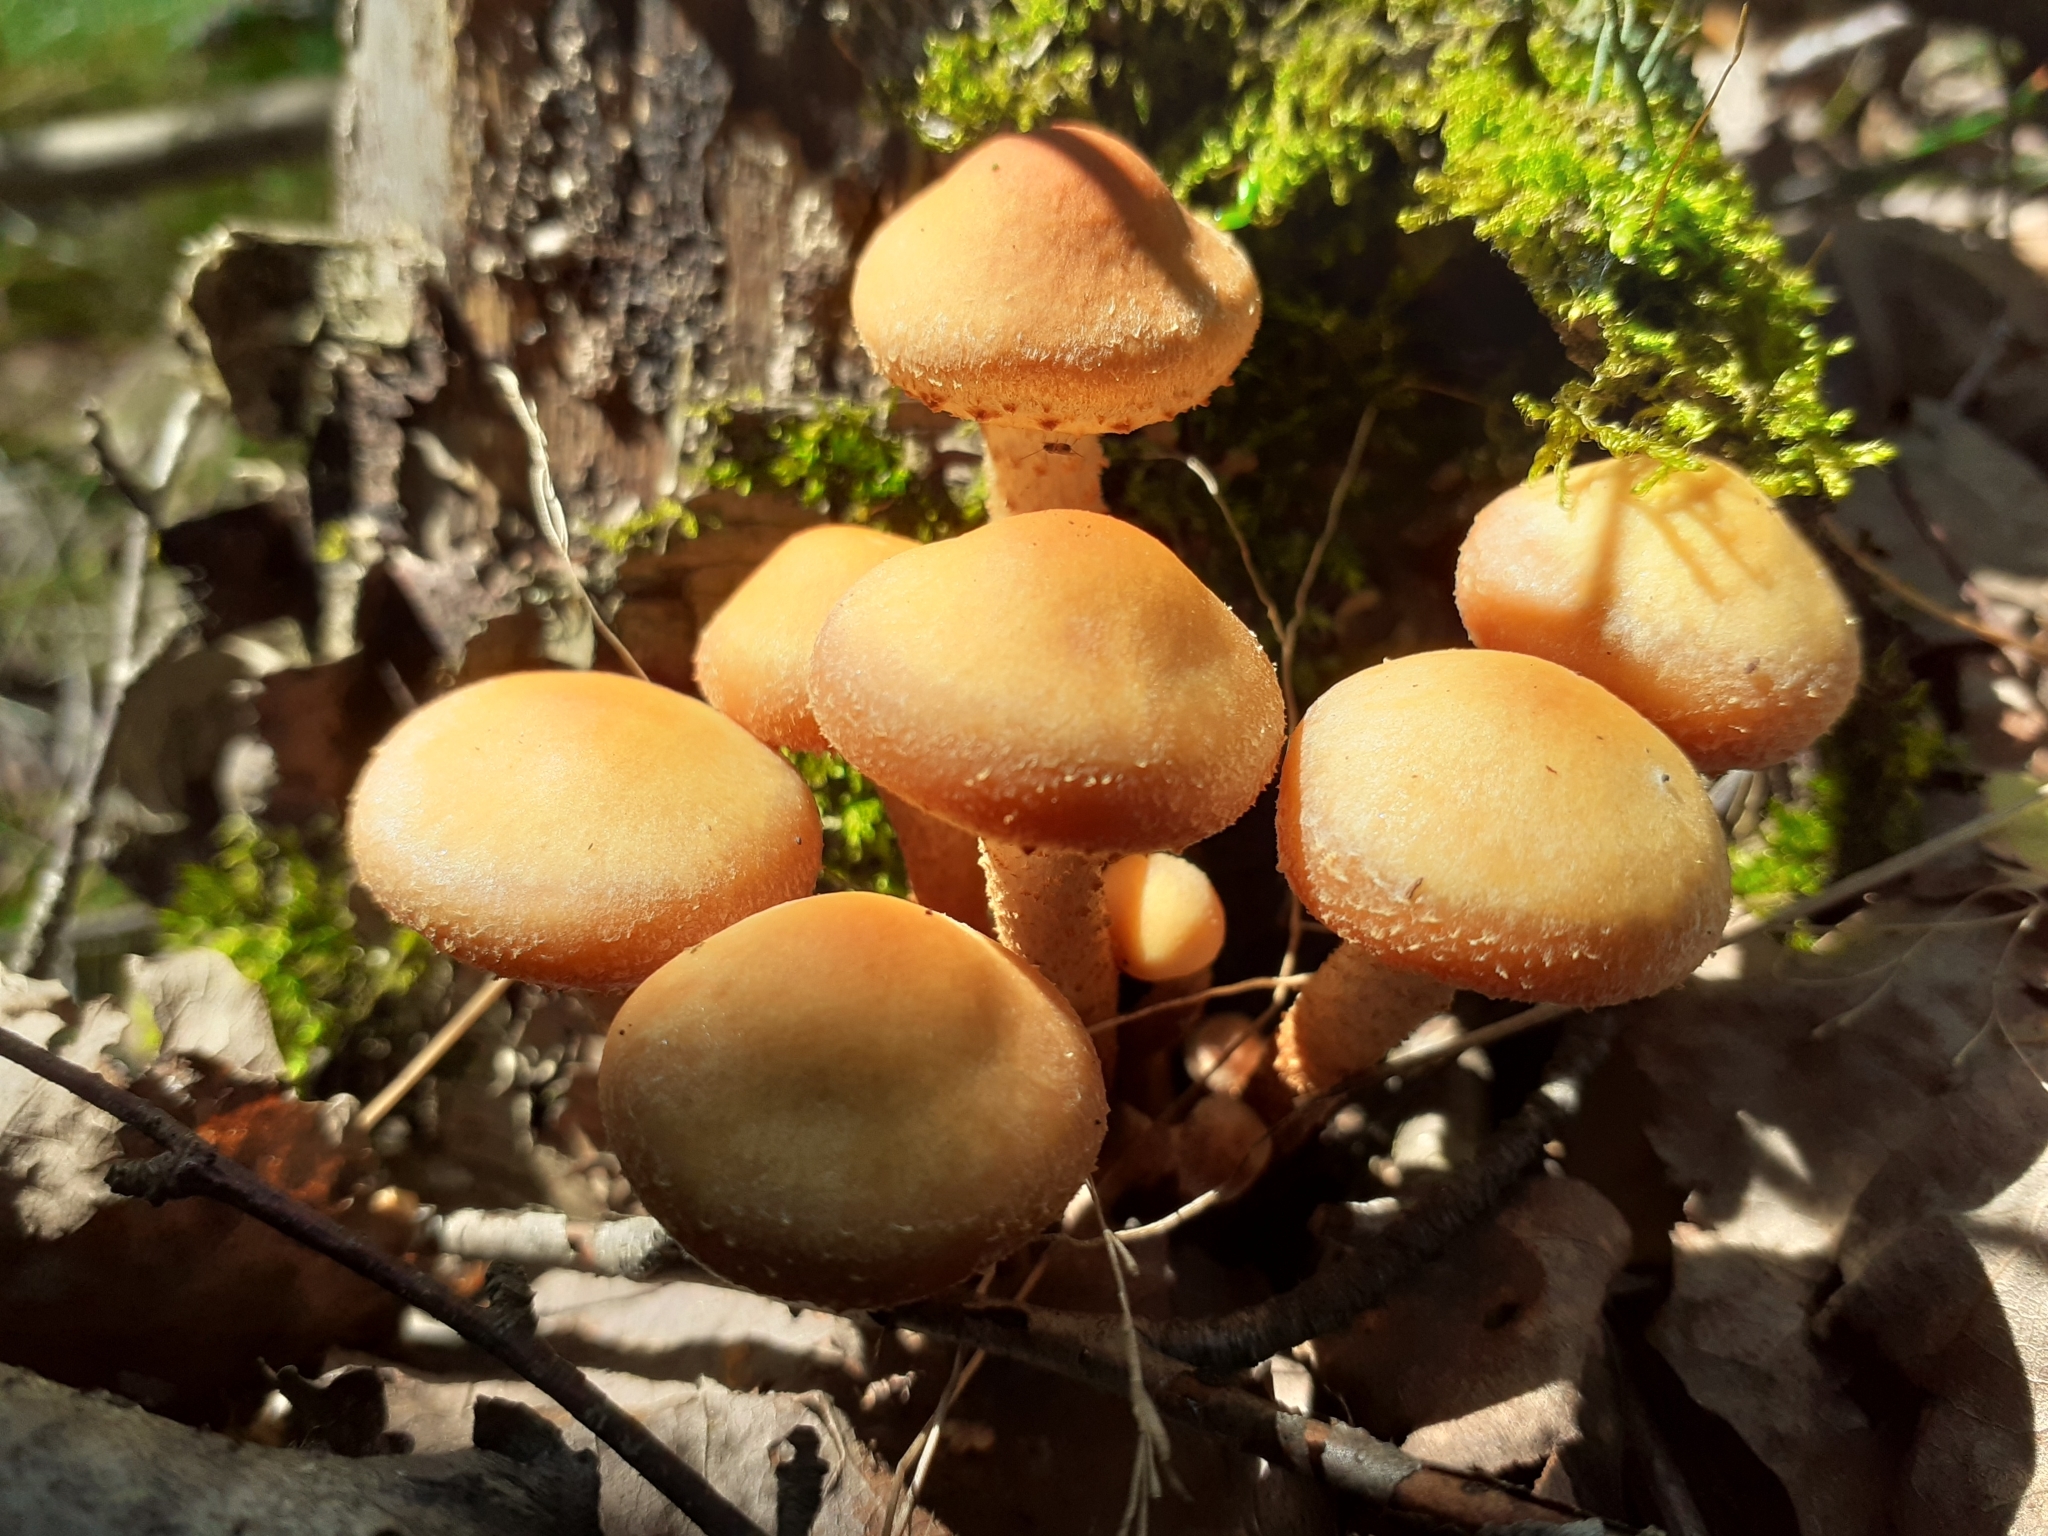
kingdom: Fungi
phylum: Basidiomycota
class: Agaricomycetes
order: Agaricales
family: Strophariaceae
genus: Kuehneromyces
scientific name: Kuehneromyces mutabilis
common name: Sheathed woodtuft
